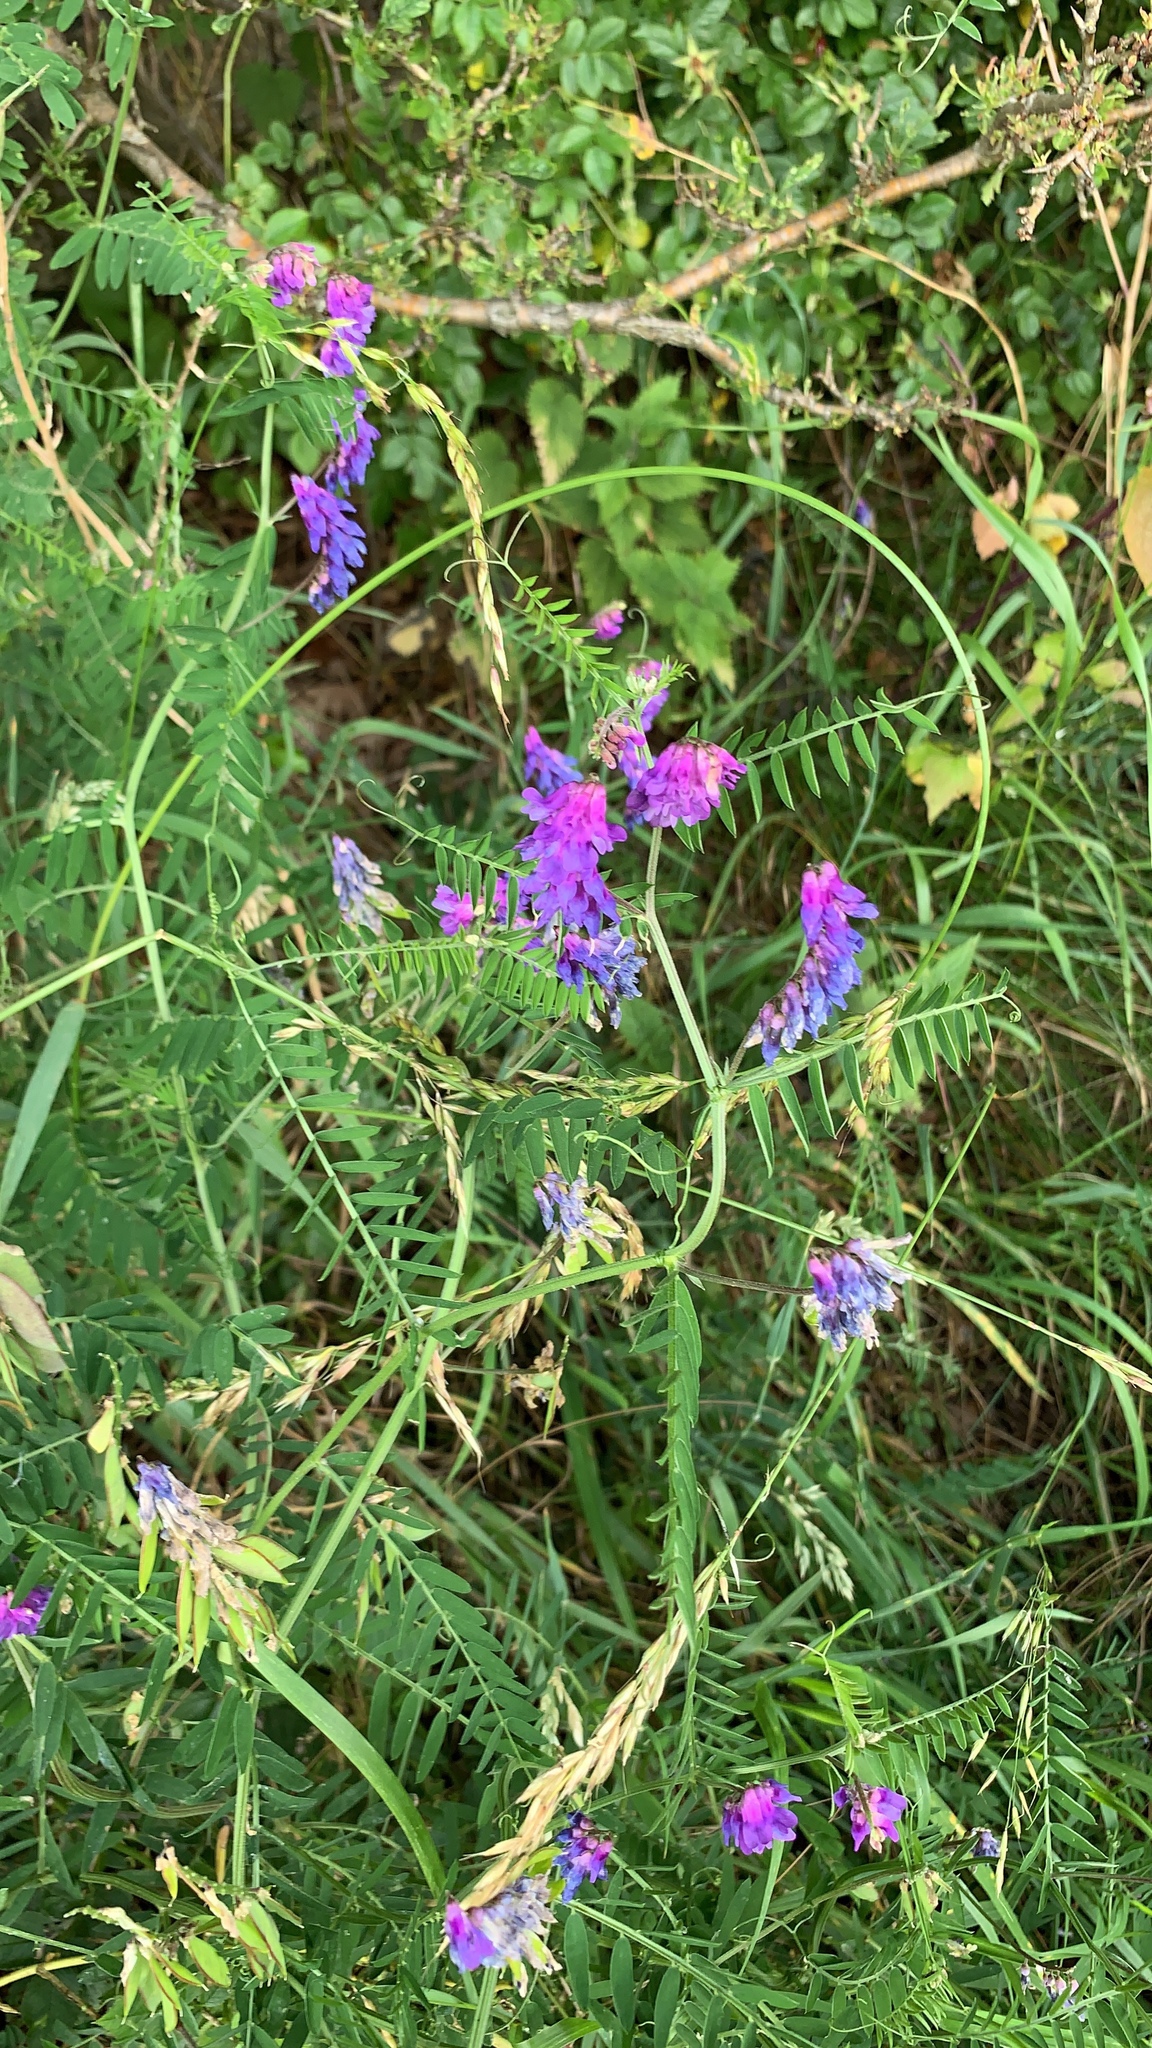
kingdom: Plantae
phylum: Tracheophyta
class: Magnoliopsida
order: Fabales
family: Fabaceae
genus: Vicia
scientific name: Vicia cracca
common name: Bird vetch
